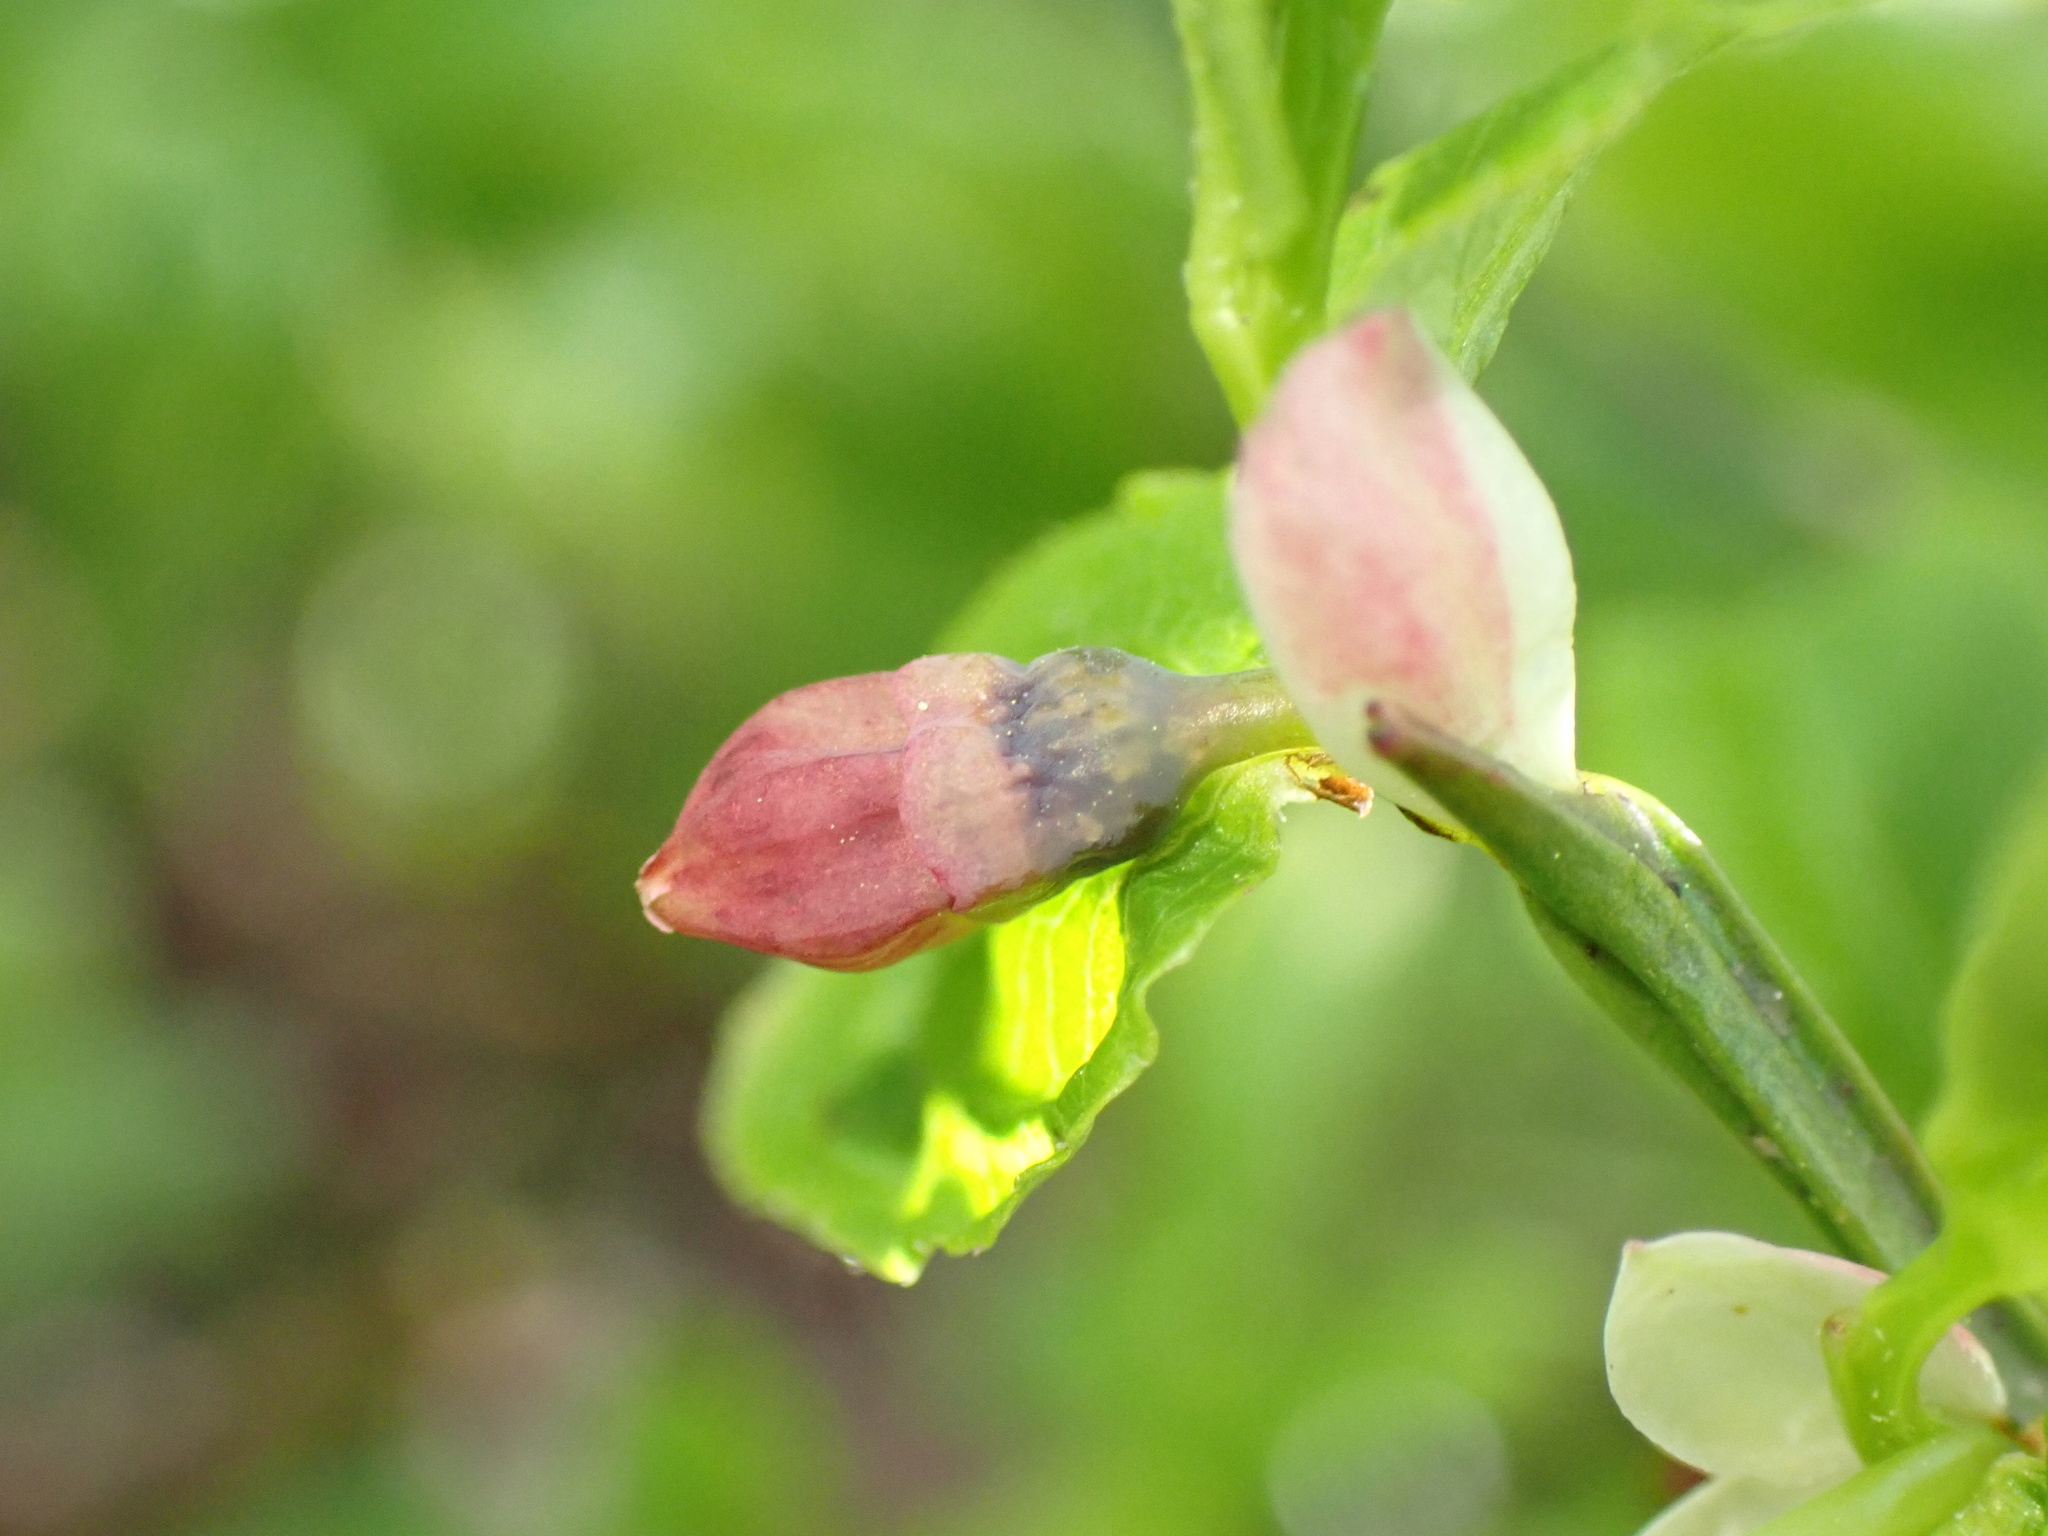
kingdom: Plantae
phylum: Tracheophyta
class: Magnoliopsida
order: Ericales
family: Ericaceae
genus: Vaccinium
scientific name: Vaccinium myrtillus
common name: Bilberry
